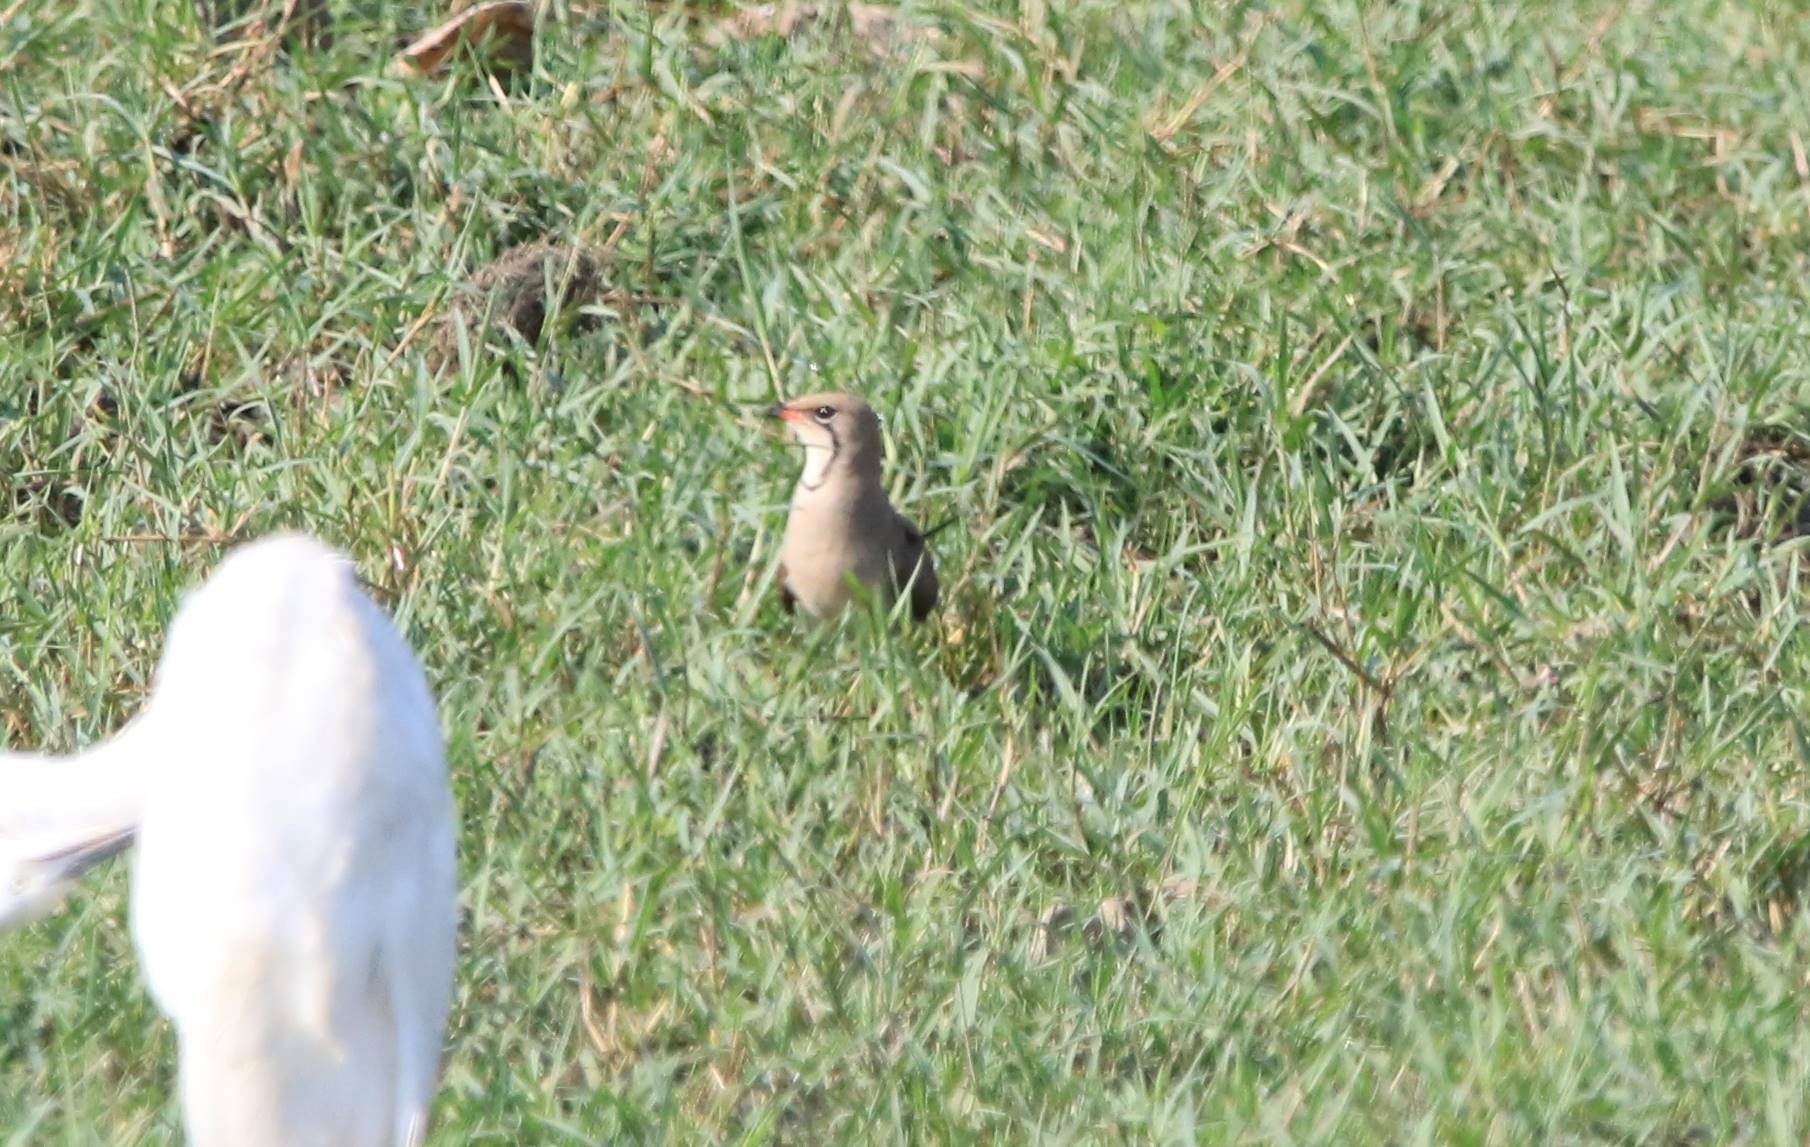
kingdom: Animalia
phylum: Chordata
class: Aves
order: Charadriiformes
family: Glareolidae
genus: Glareola
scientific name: Glareola pratincola
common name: Collared pratincole
